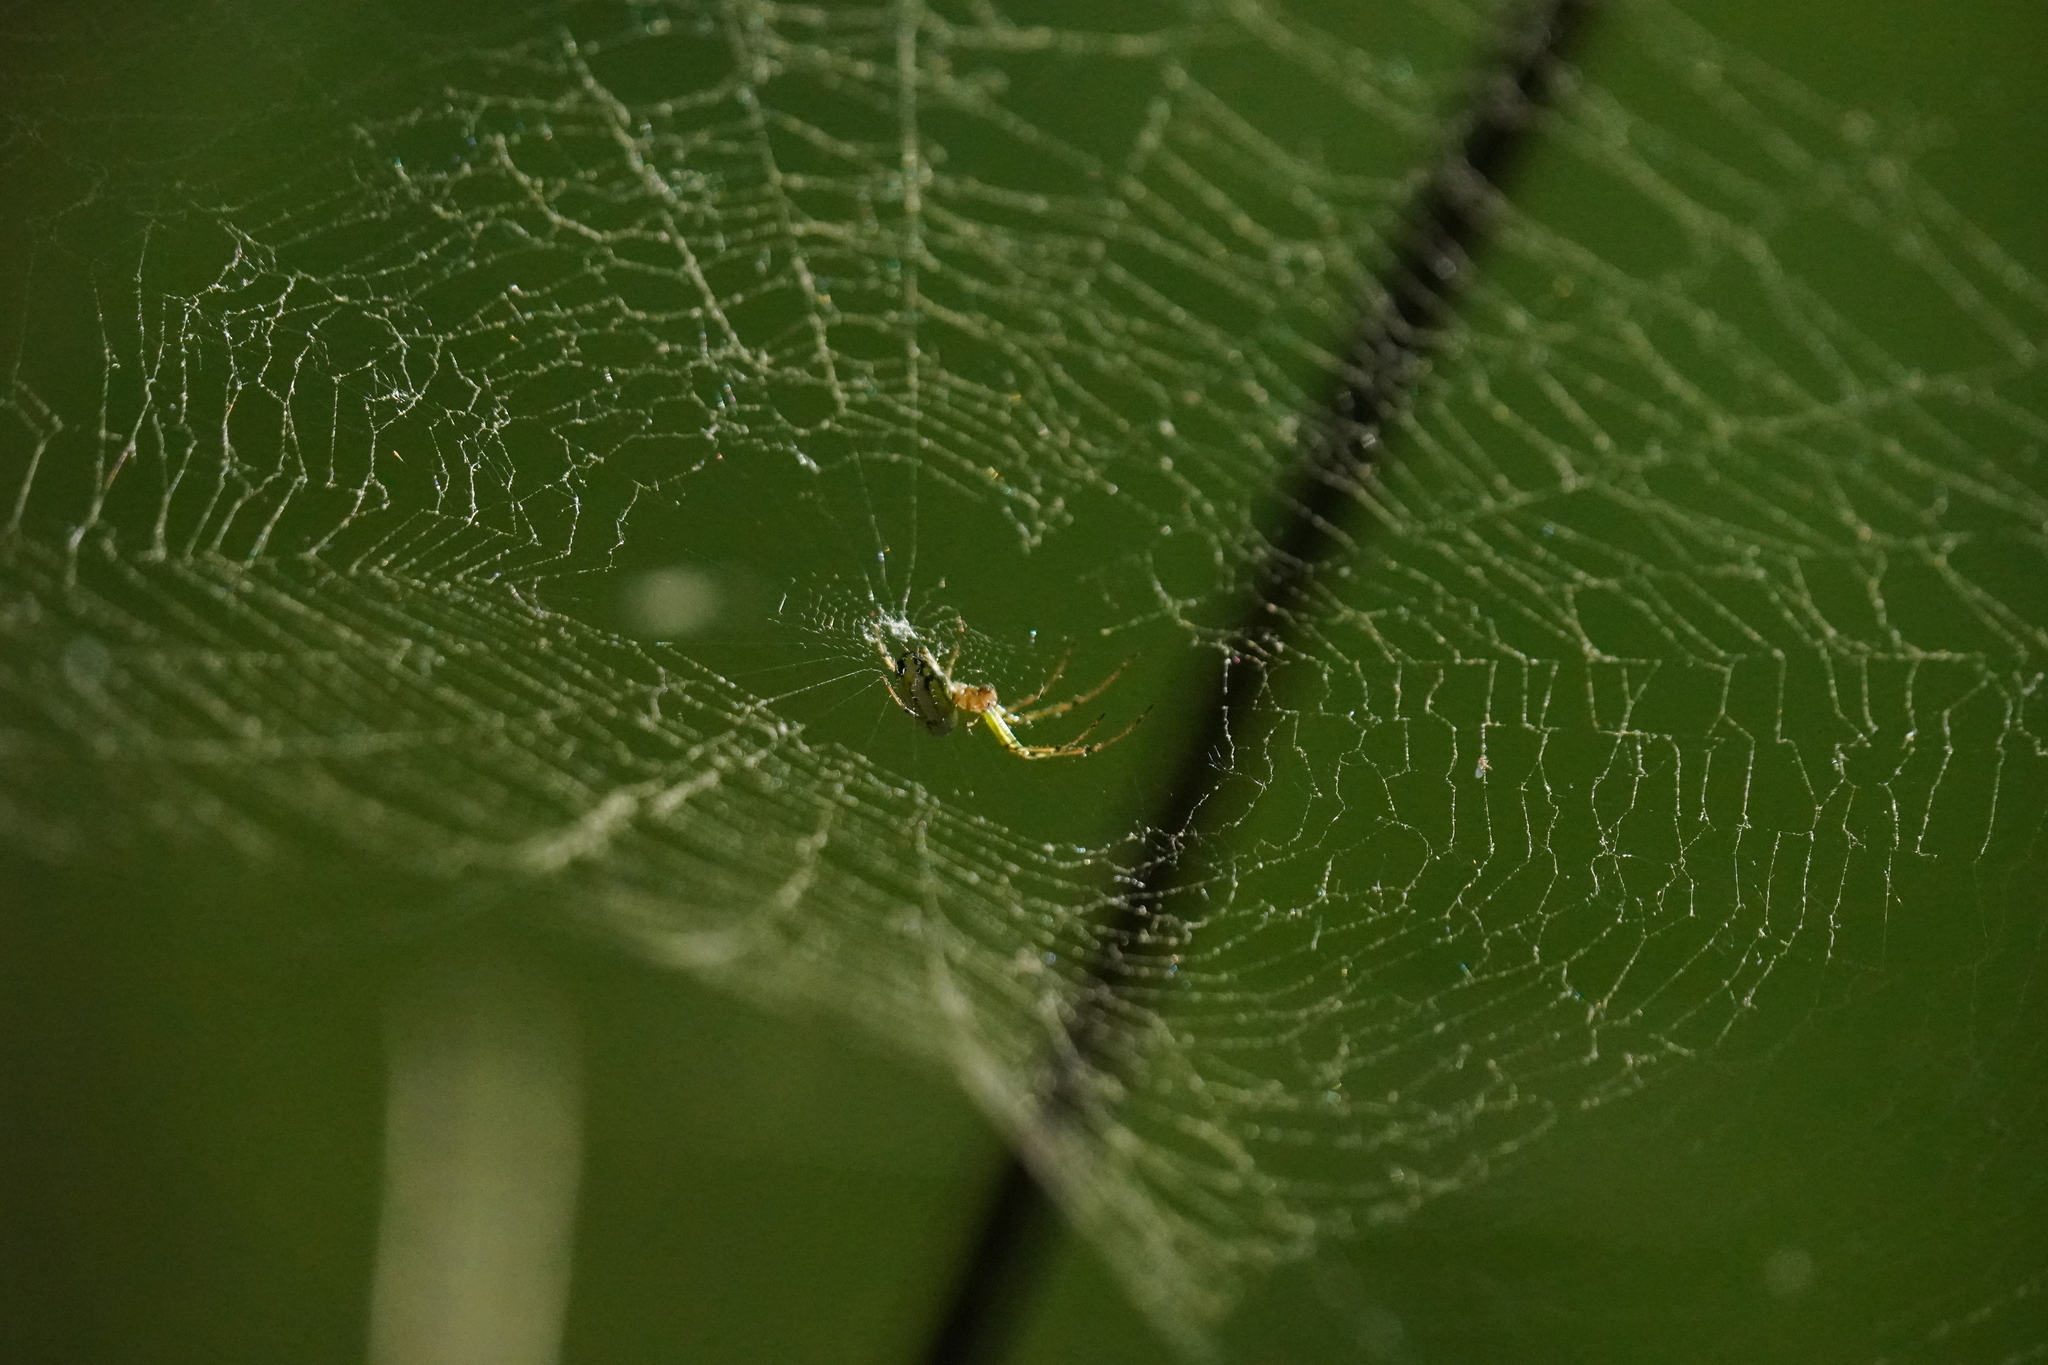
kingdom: Animalia
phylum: Arthropoda
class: Arachnida
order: Araneae
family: Tetragnathidae
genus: Leucauge
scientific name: Leucauge venusta
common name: Longjawed orb weavers
